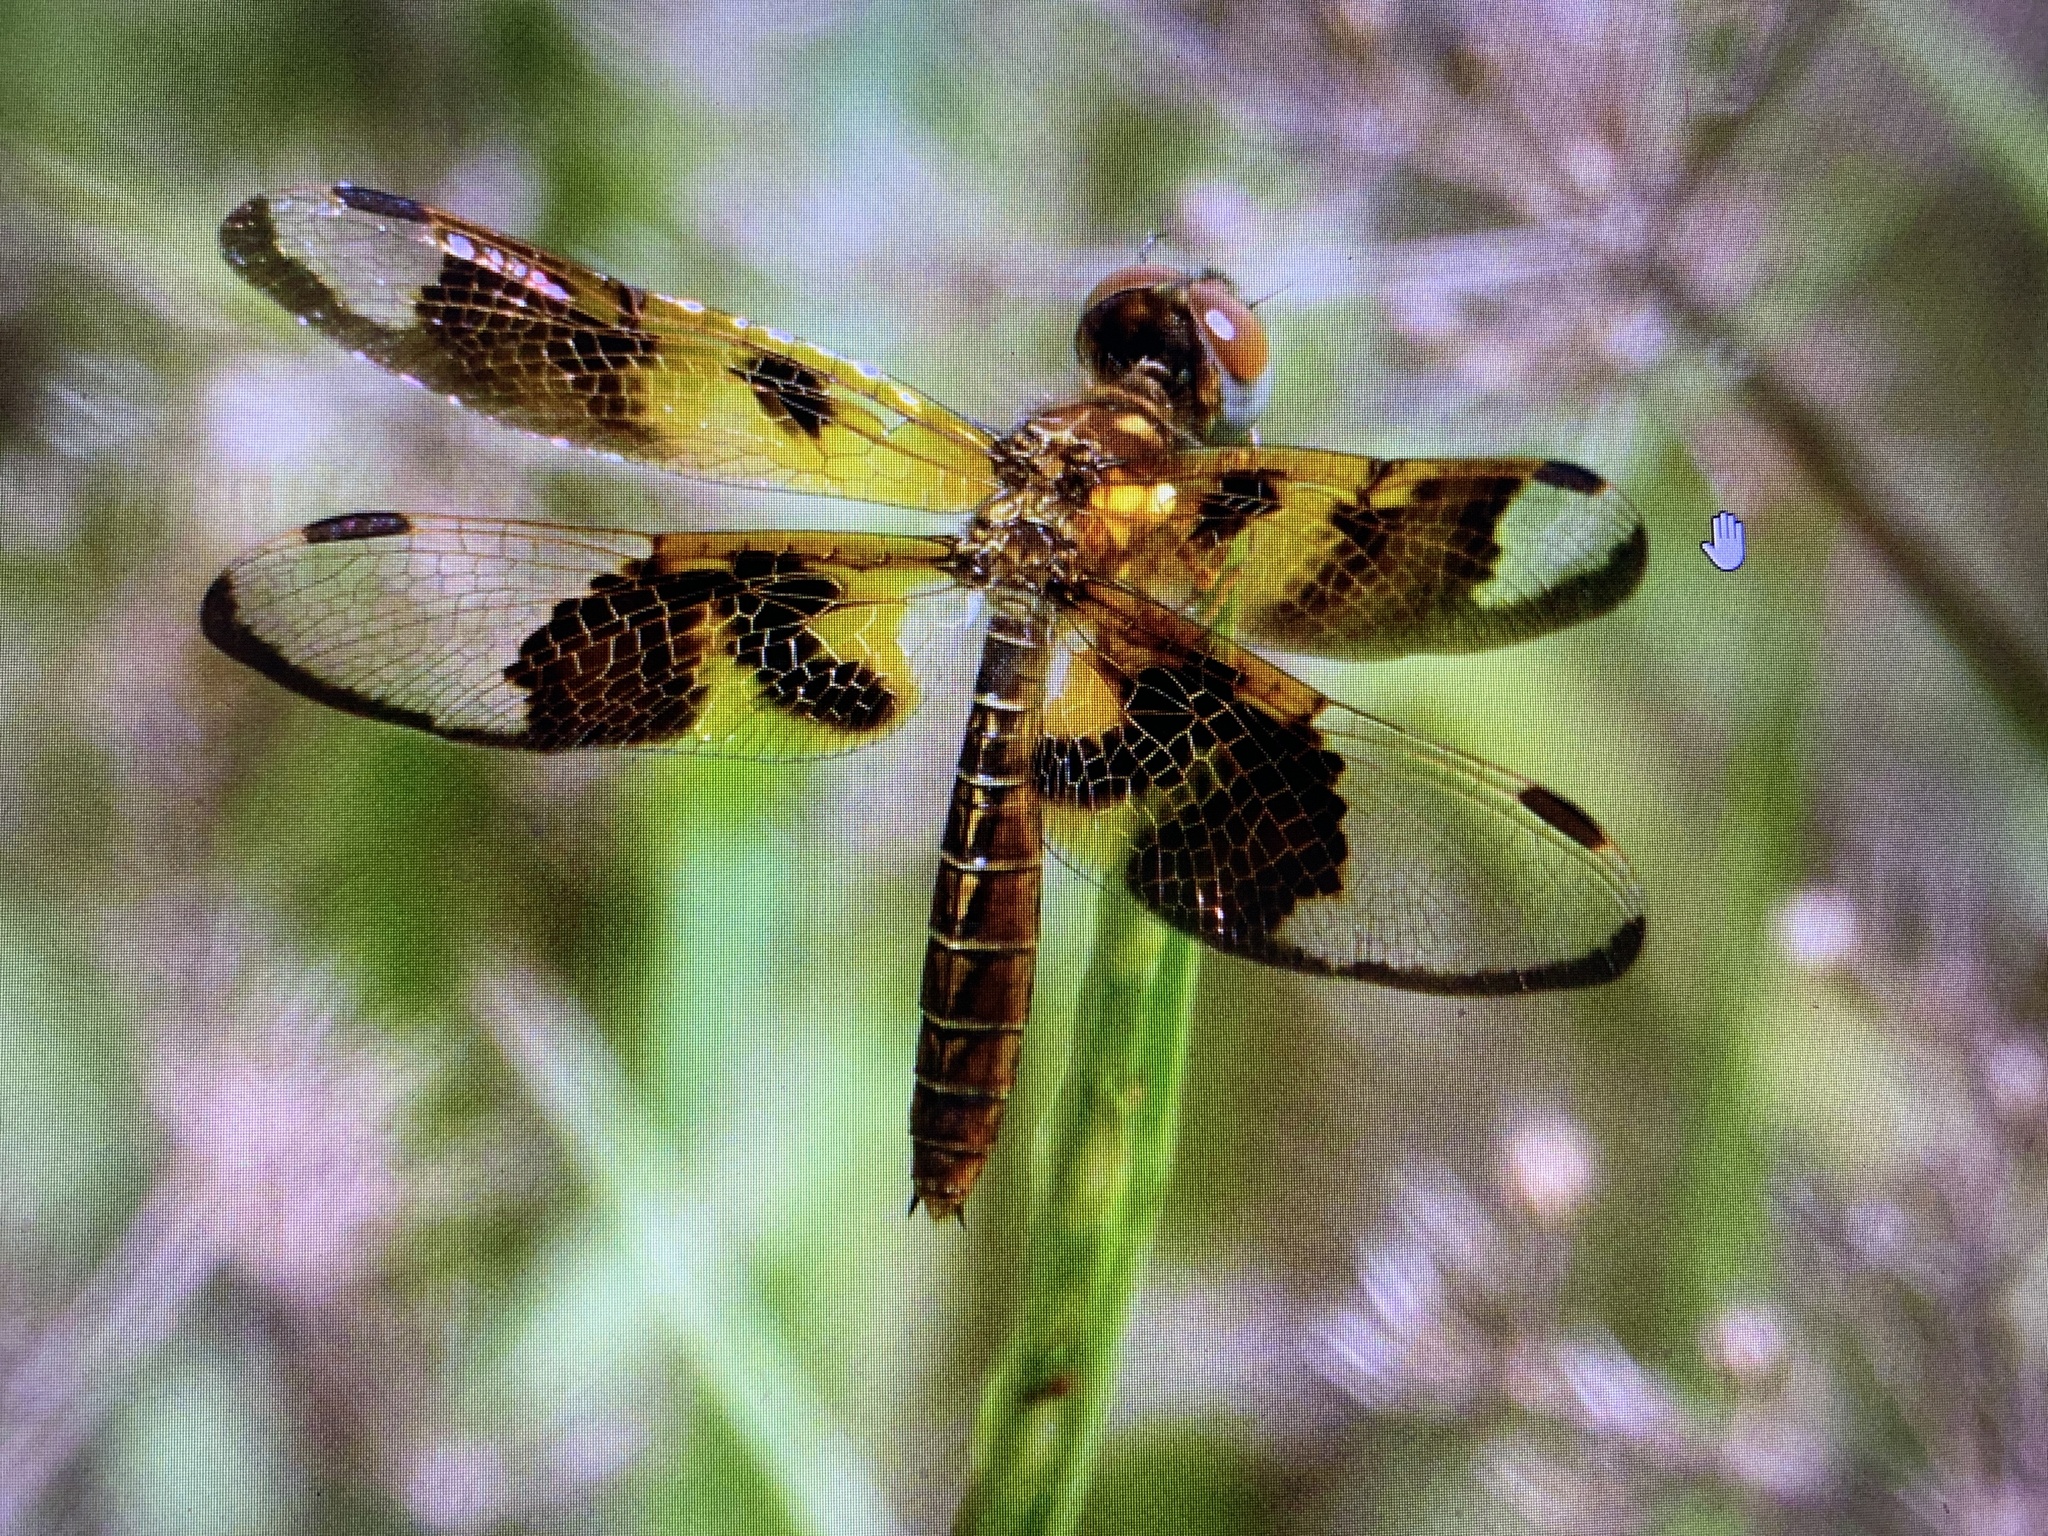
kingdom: Animalia
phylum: Arthropoda
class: Insecta
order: Odonata
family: Libellulidae
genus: Perithemis
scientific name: Perithemis tenera
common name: Eastern amberwing
